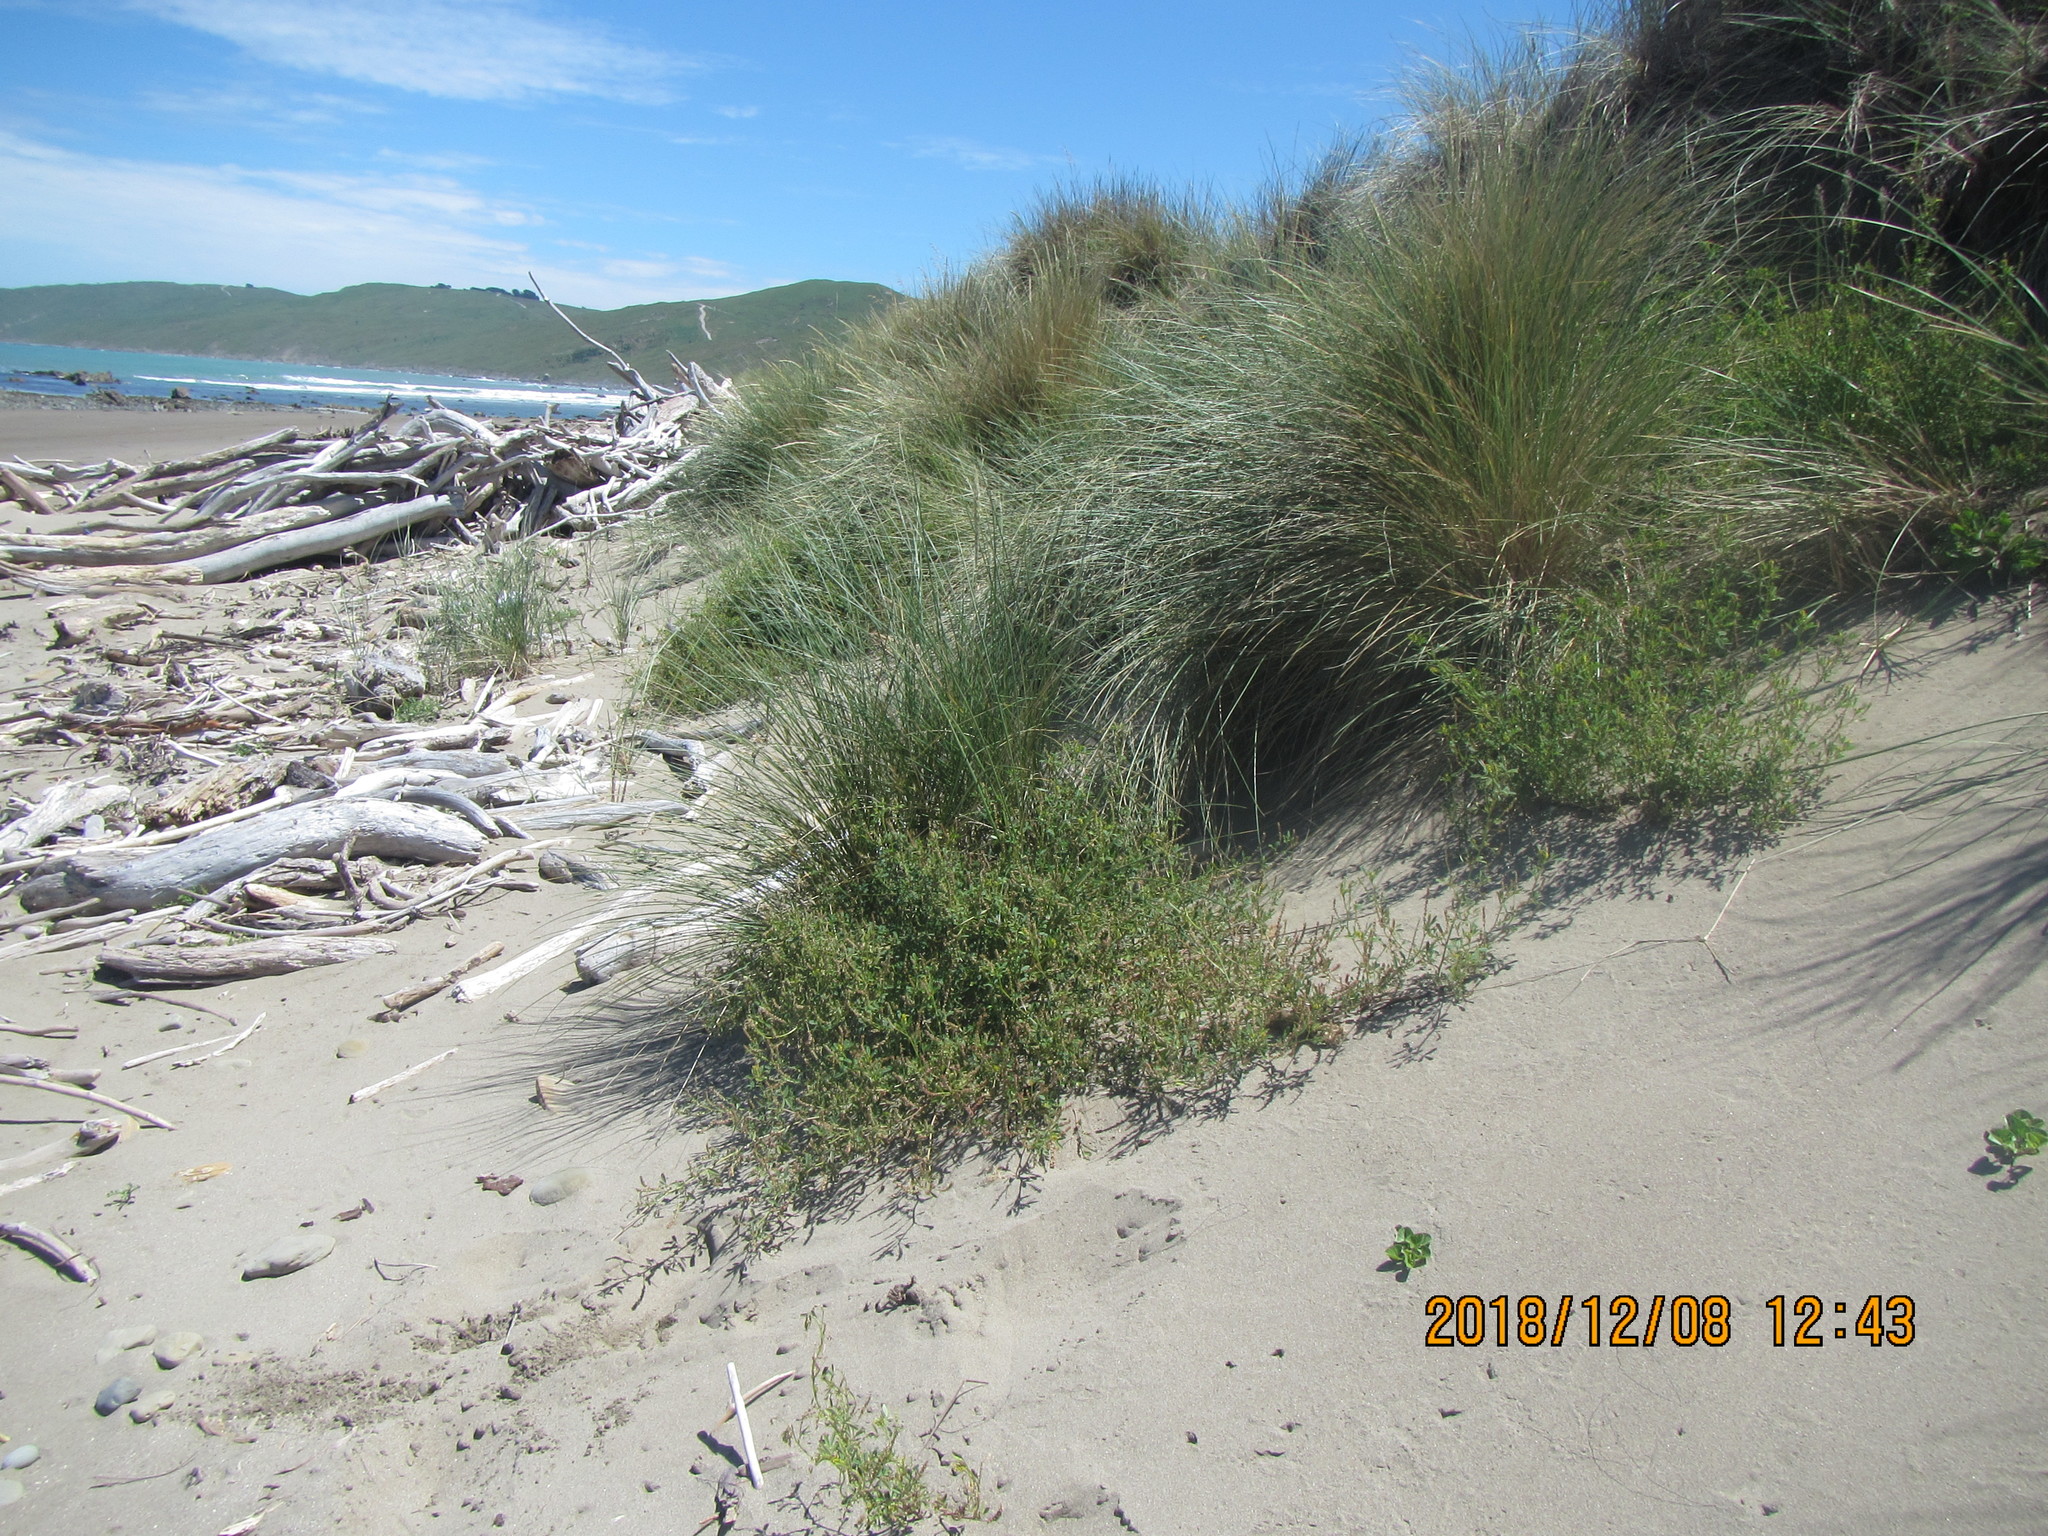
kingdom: Plantae
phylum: Tracheophyta
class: Magnoliopsida
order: Fabales
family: Fabaceae
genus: Melilotus
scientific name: Melilotus indicus
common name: Small melilot
